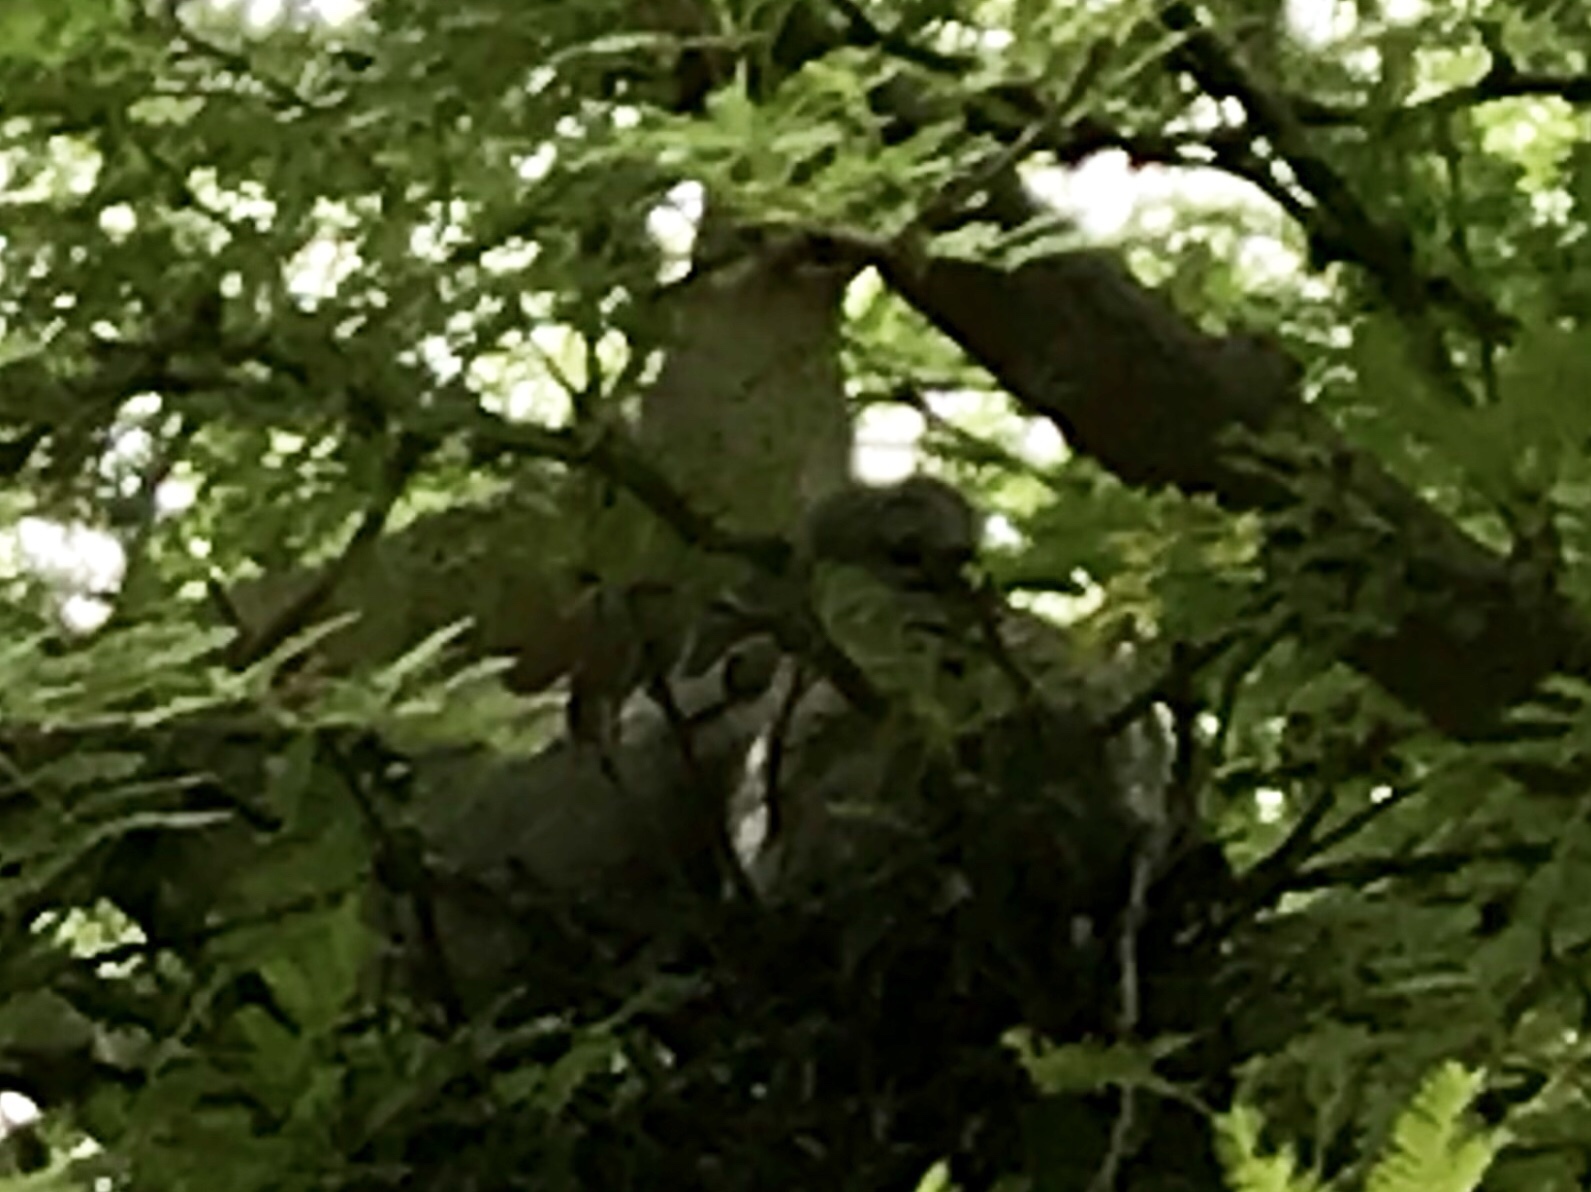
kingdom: Animalia
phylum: Chordata
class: Aves
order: Columbiformes
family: Columbidae
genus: Zenaida
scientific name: Zenaida asiatica
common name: White-winged dove
